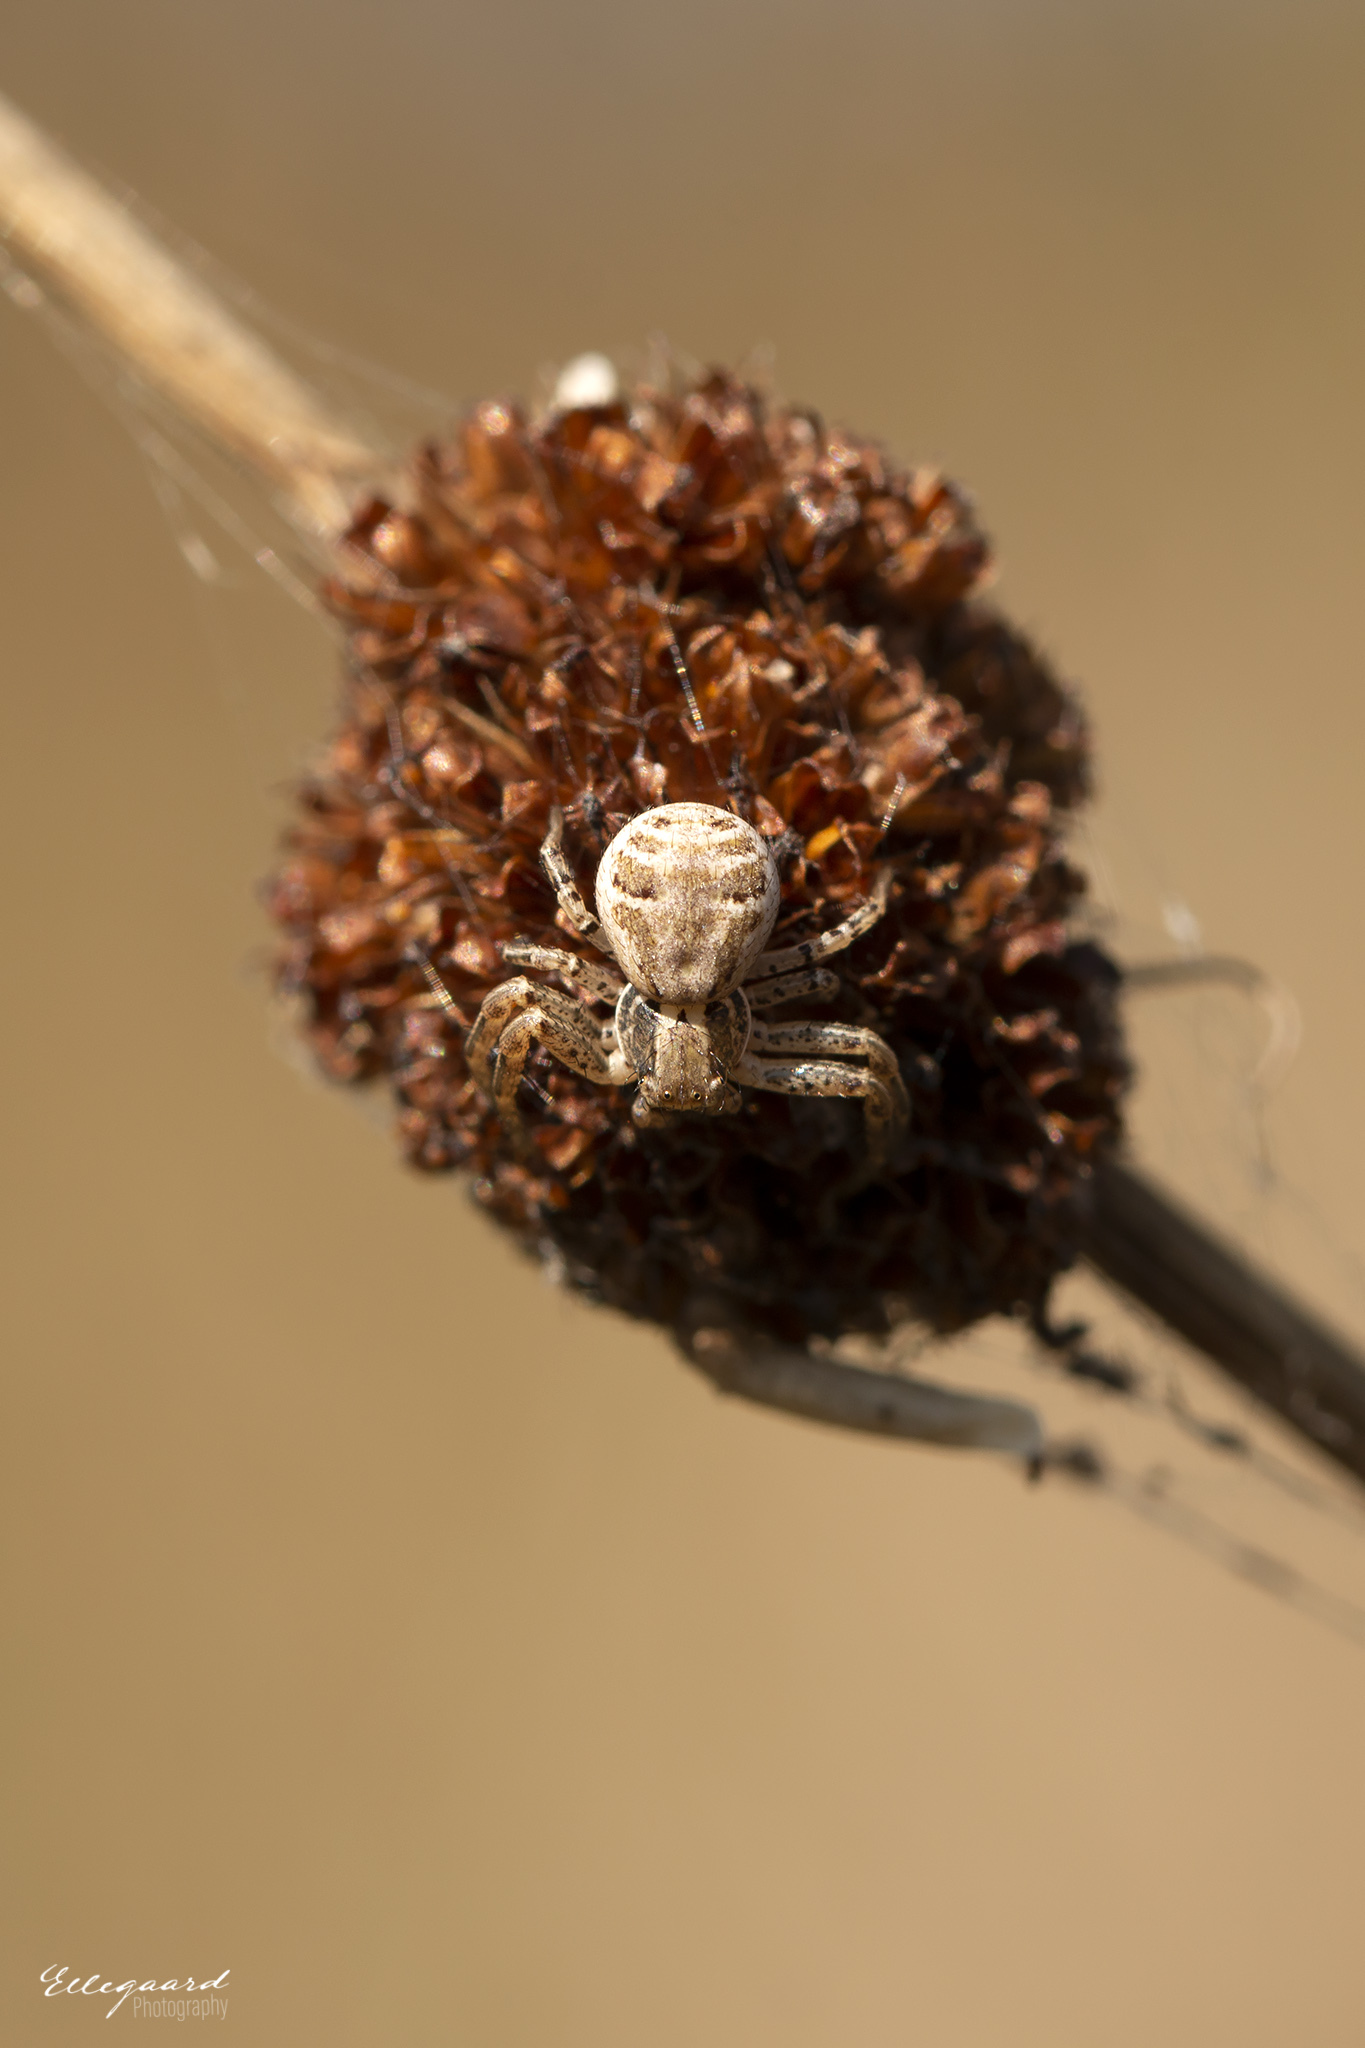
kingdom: Animalia
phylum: Arthropoda
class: Arachnida
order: Araneae
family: Thomisidae
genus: Xysticus
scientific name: Xysticus
